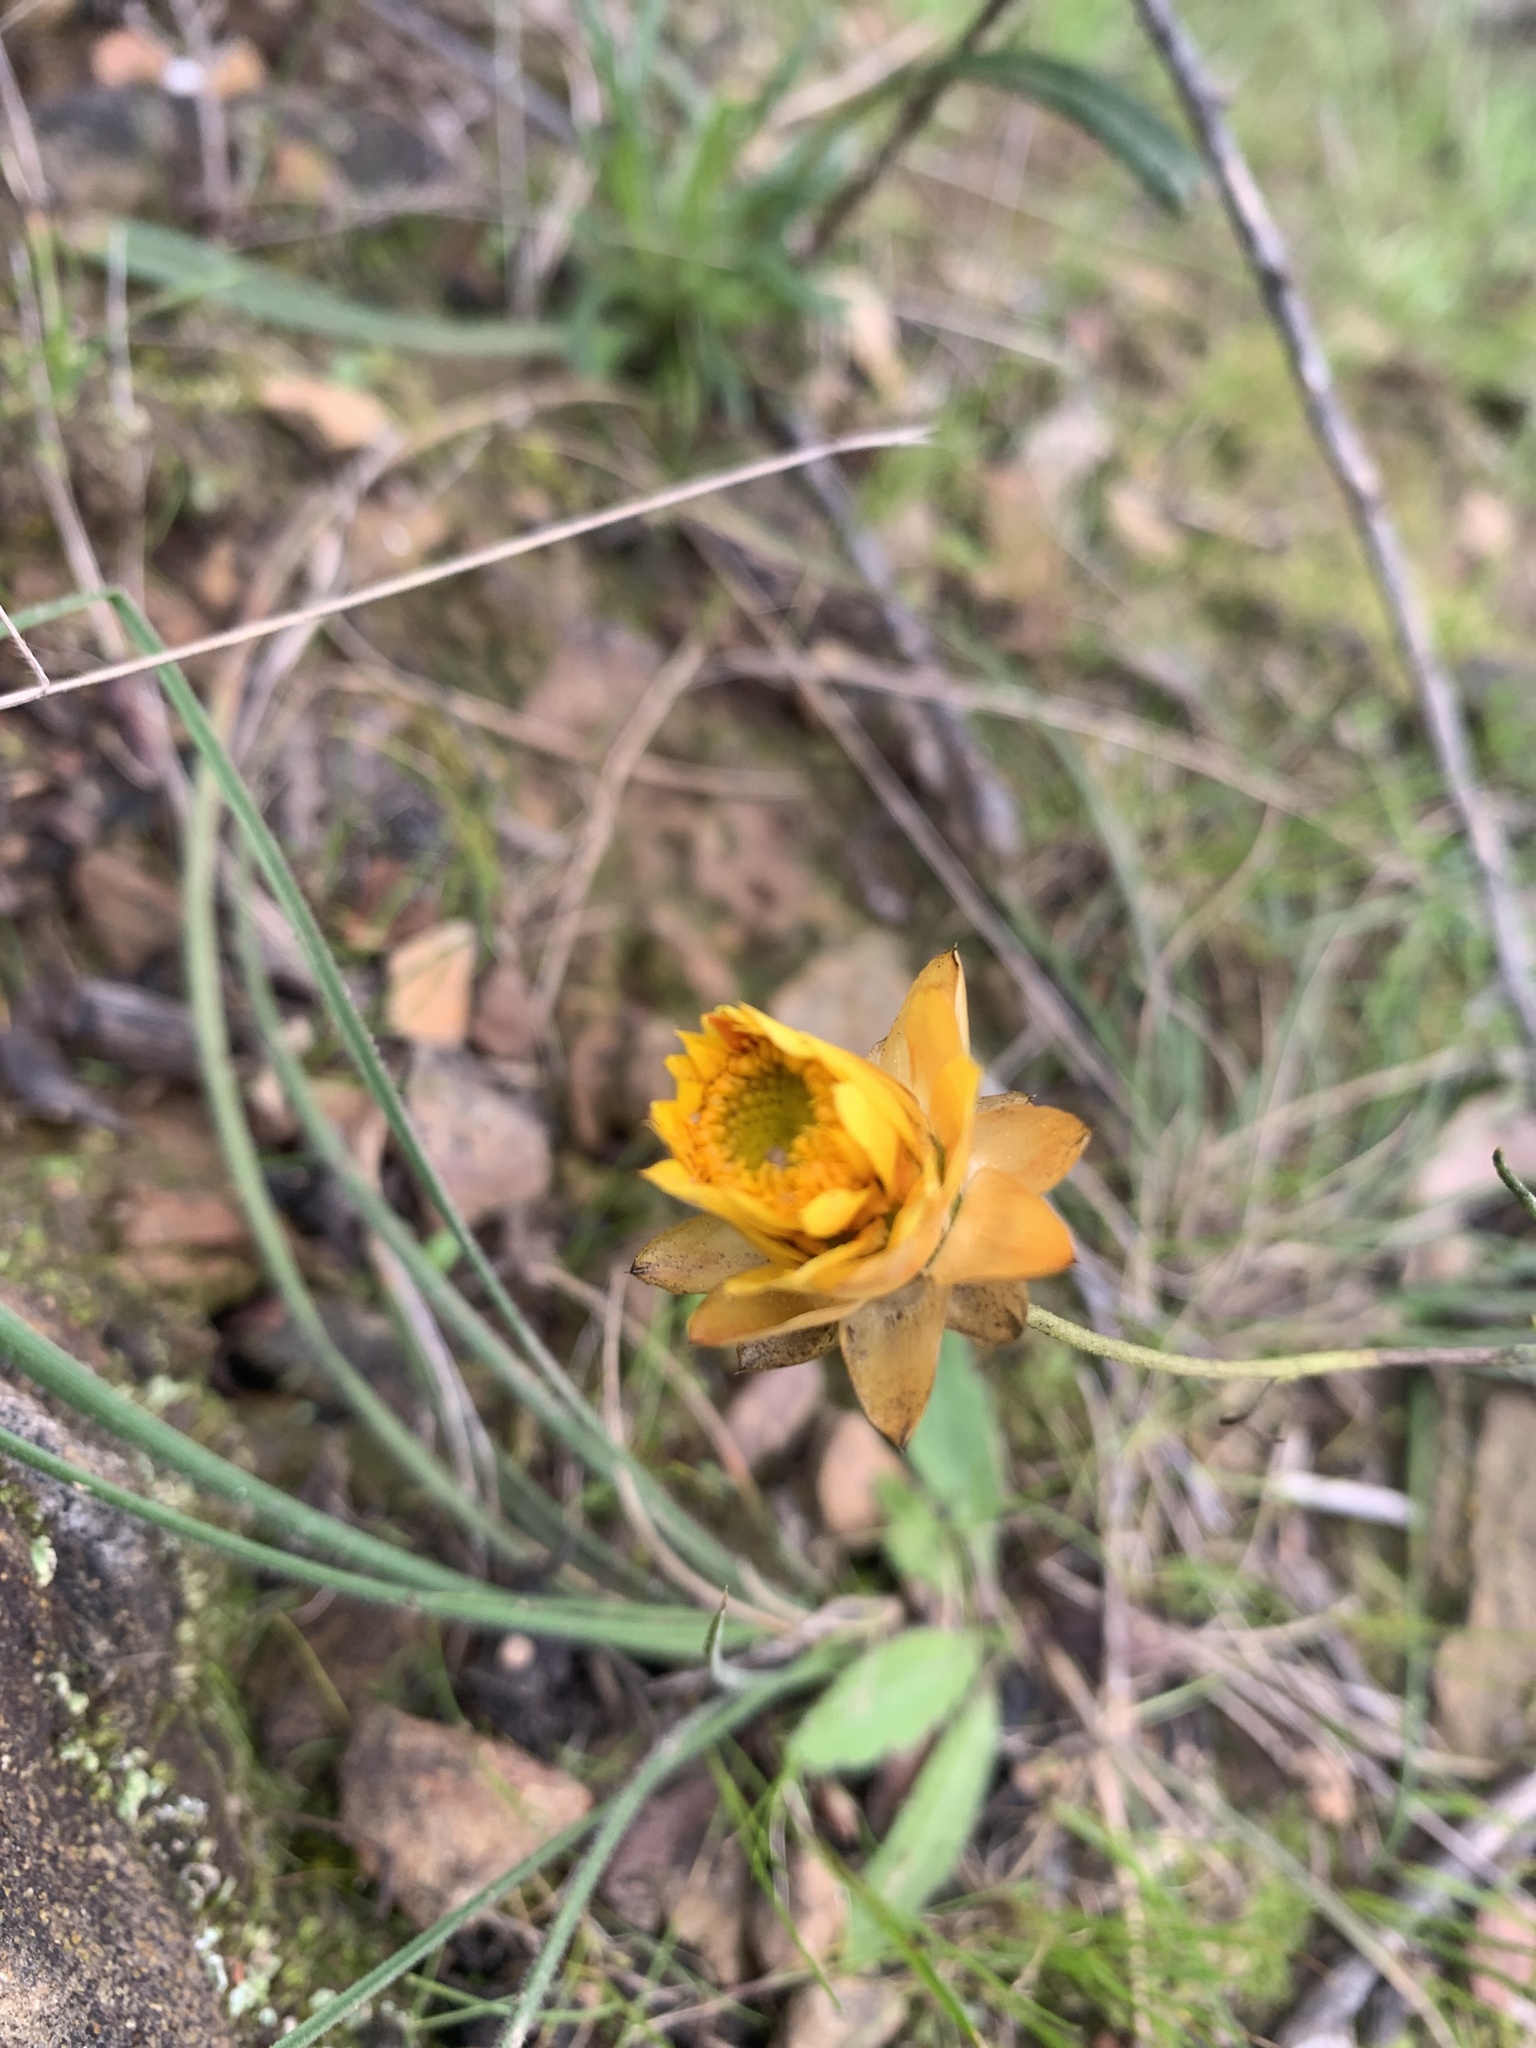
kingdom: Plantae
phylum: Tracheophyta
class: Magnoliopsida
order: Asterales
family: Asteraceae
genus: Xerochrysum
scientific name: Xerochrysum viscosum
